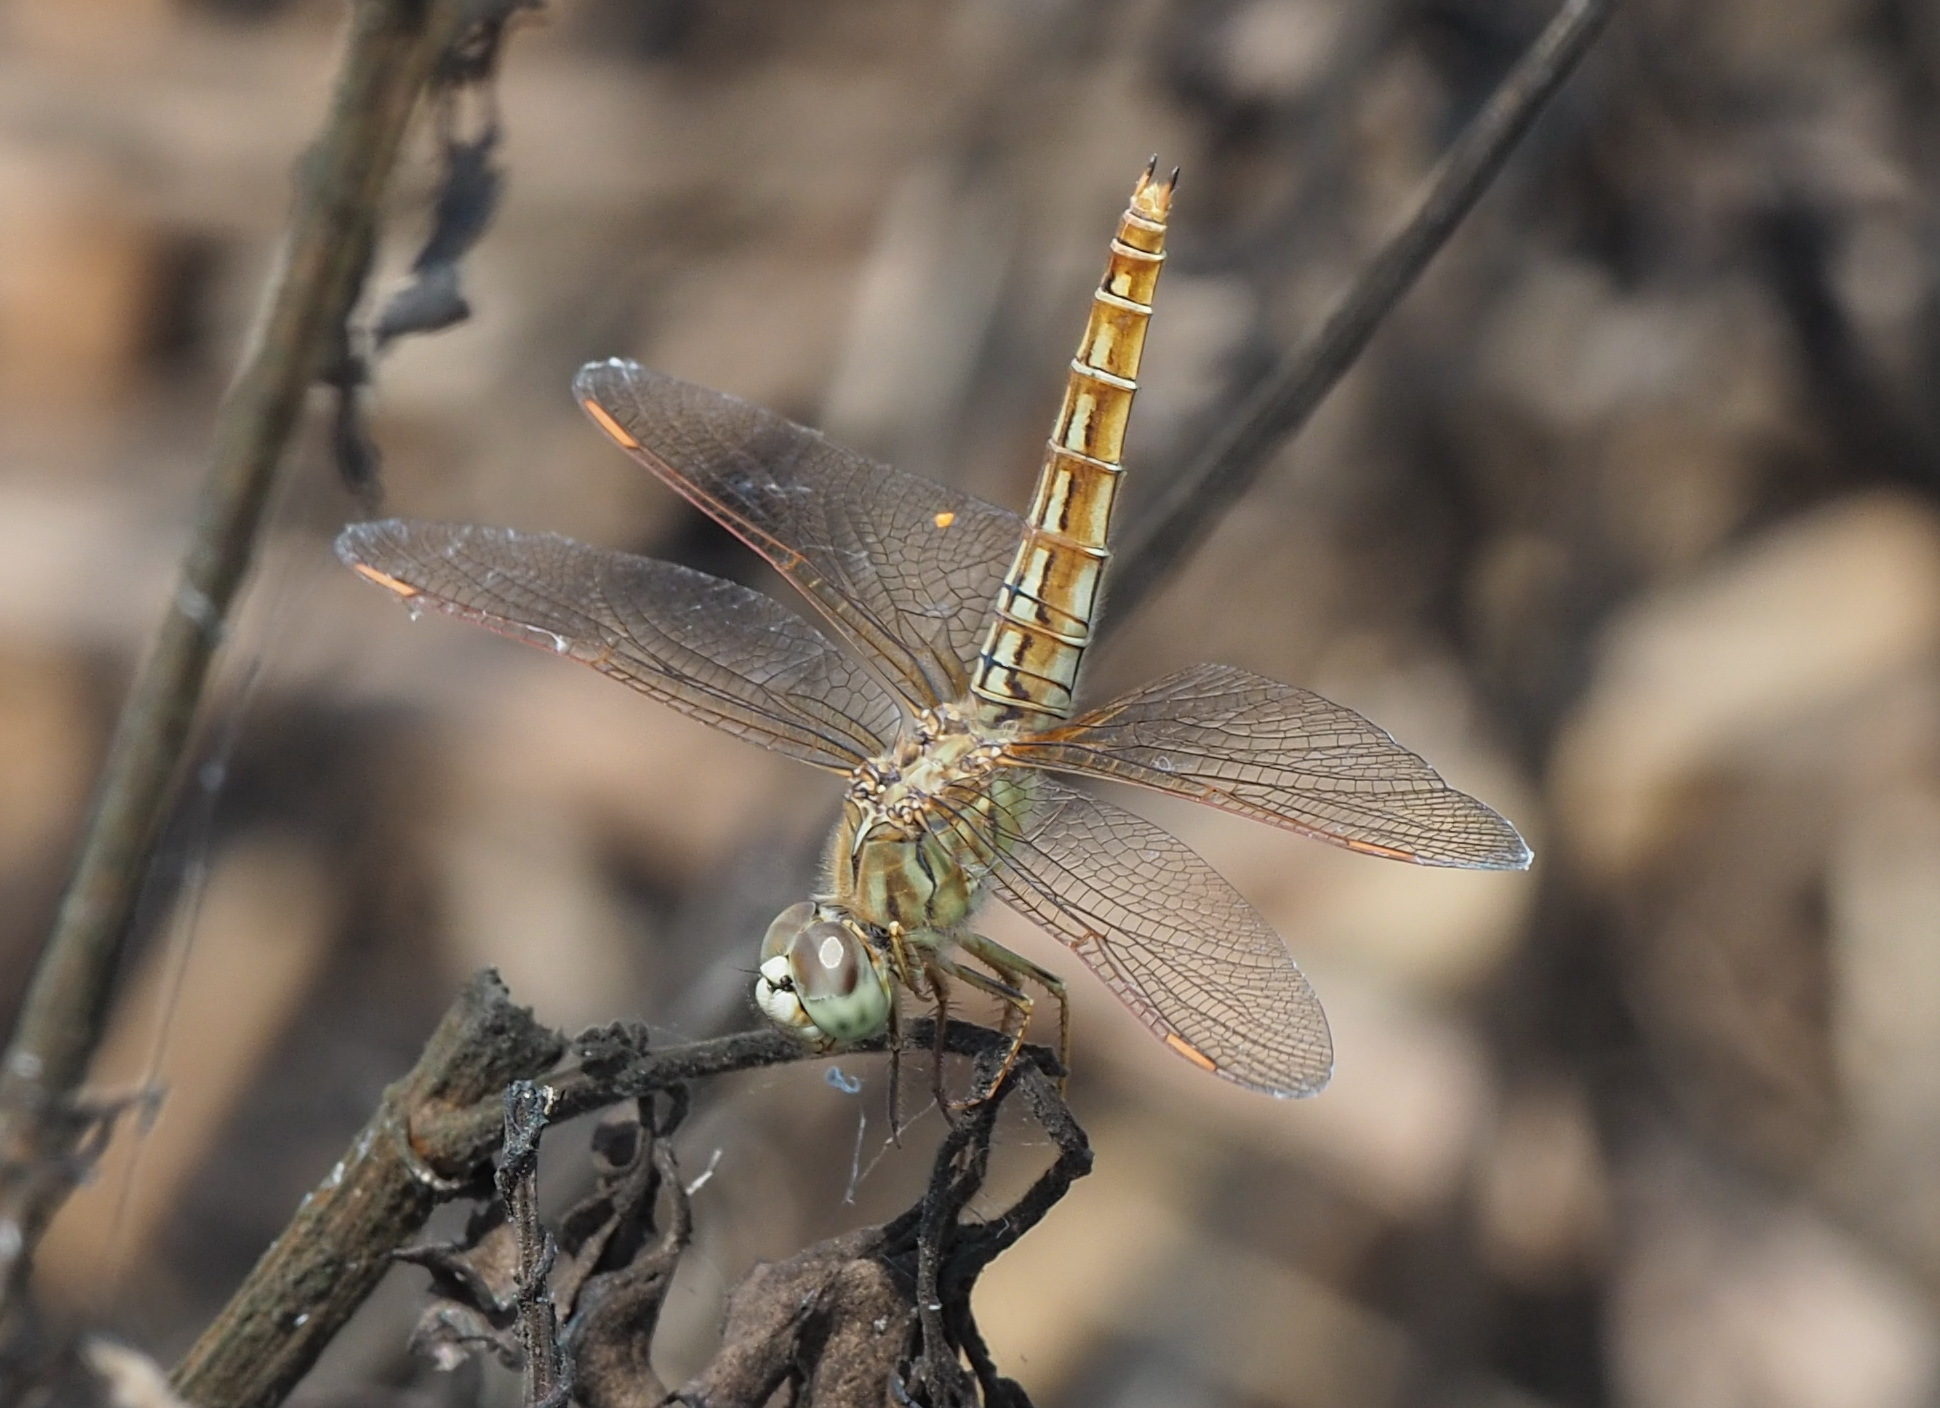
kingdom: Animalia
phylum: Arthropoda
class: Insecta
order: Odonata
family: Libellulidae
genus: Brachythemis
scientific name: Brachythemis contaminata
